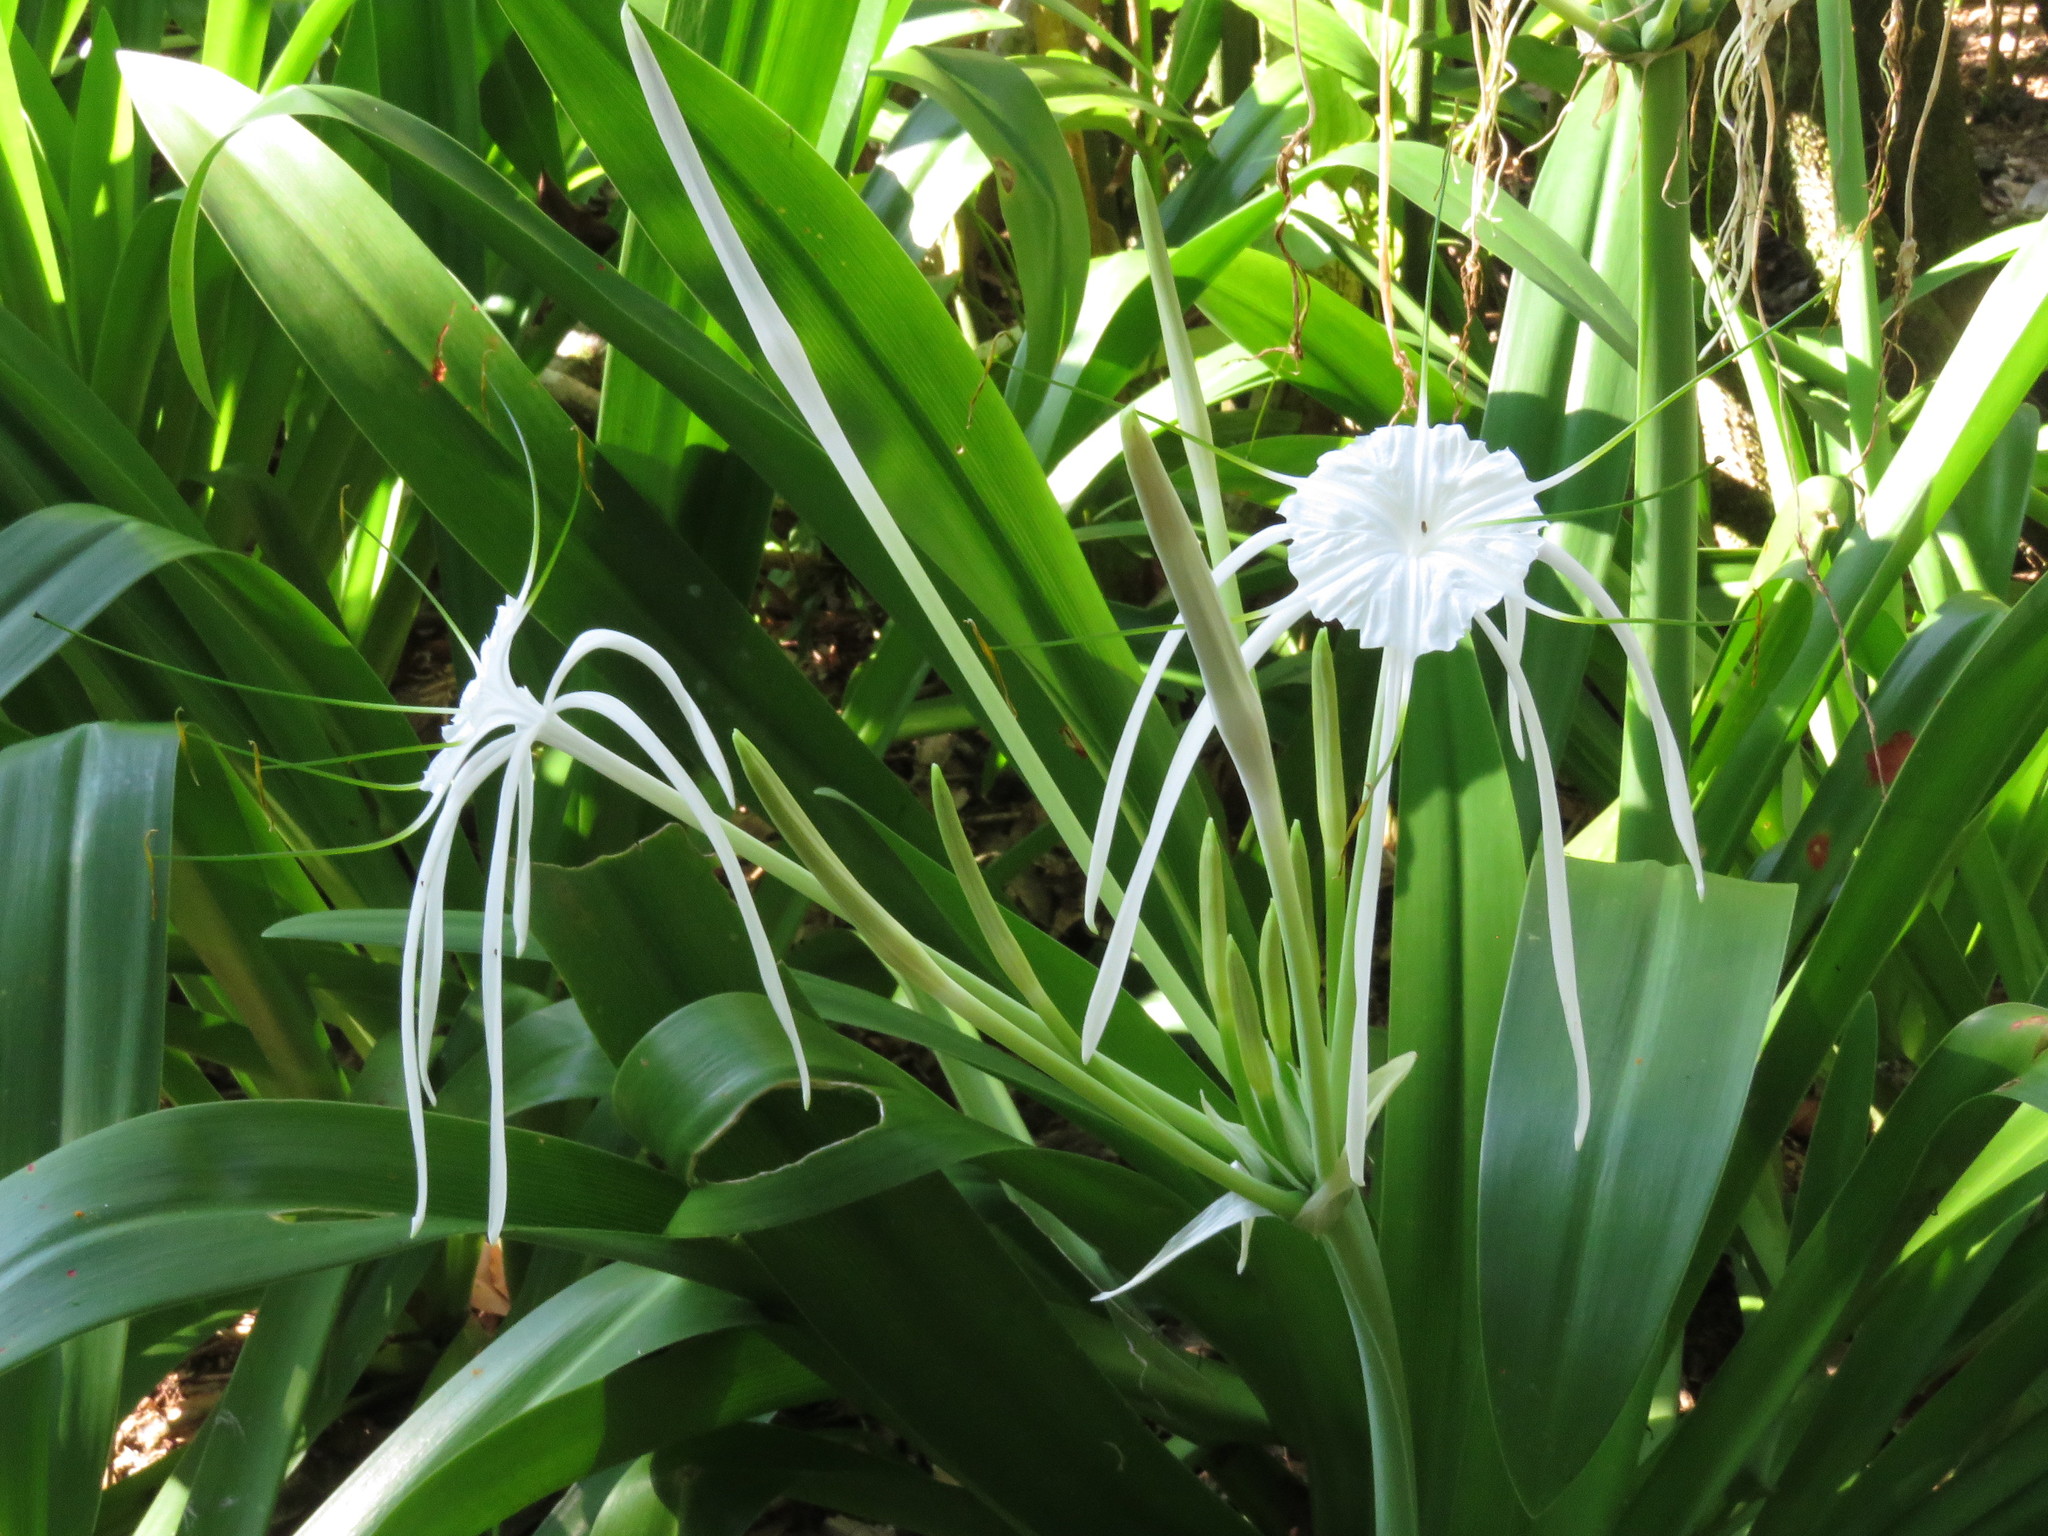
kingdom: Plantae
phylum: Tracheophyta
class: Liliopsida
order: Asparagales
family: Amaryllidaceae
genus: Hymenocallis
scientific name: Hymenocallis littoralis
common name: Beach spiderlily
